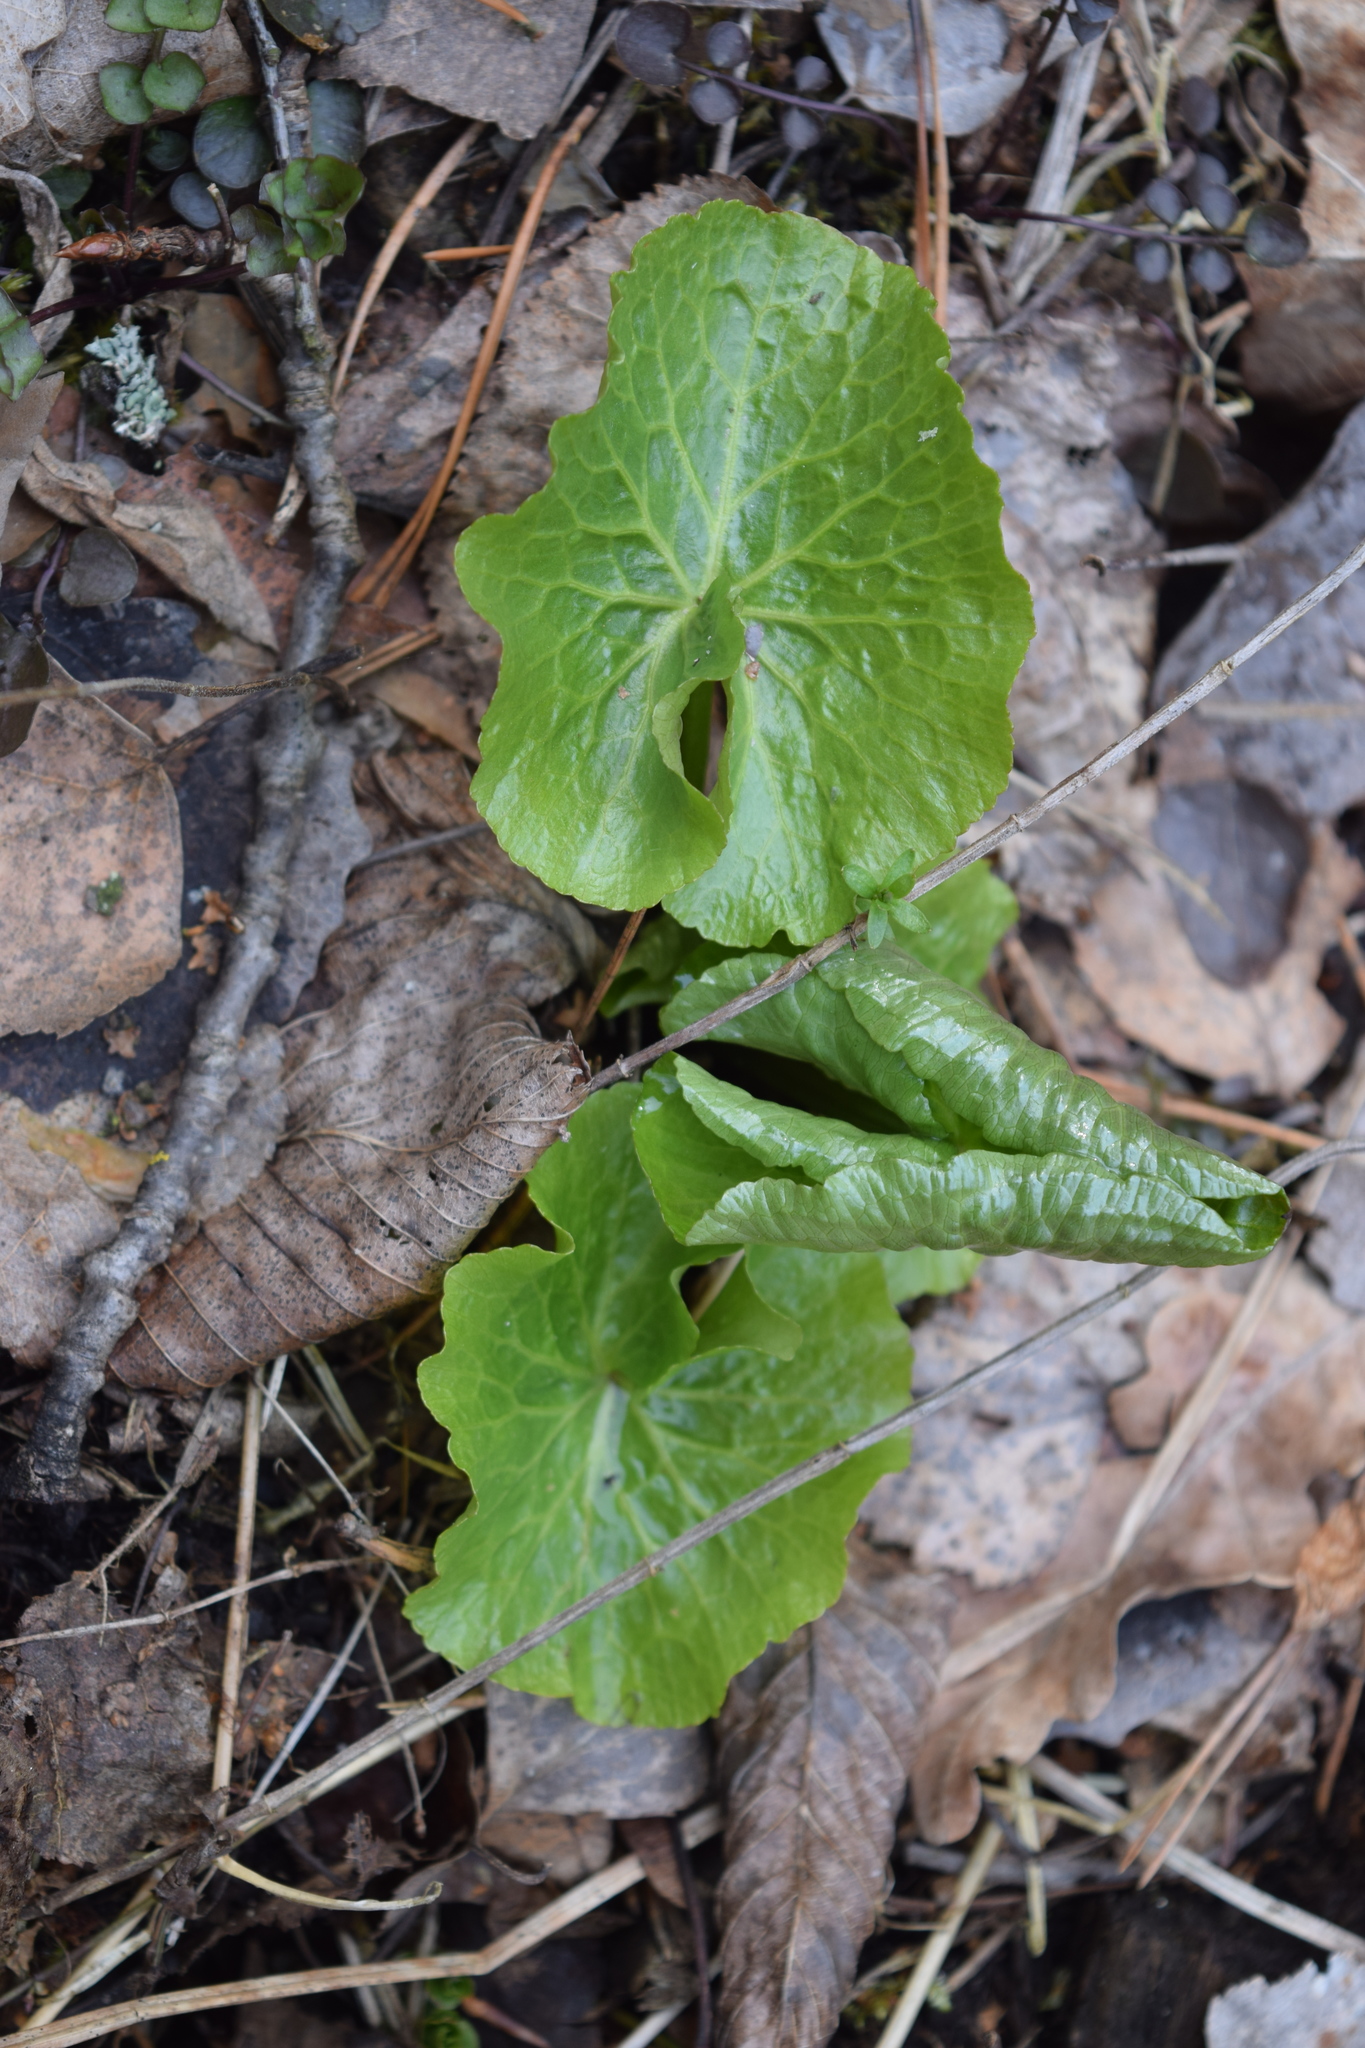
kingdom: Plantae
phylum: Tracheophyta
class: Magnoliopsida
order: Ranunculales
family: Ranunculaceae
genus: Caltha
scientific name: Caltha palustris
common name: Marsh marigold
